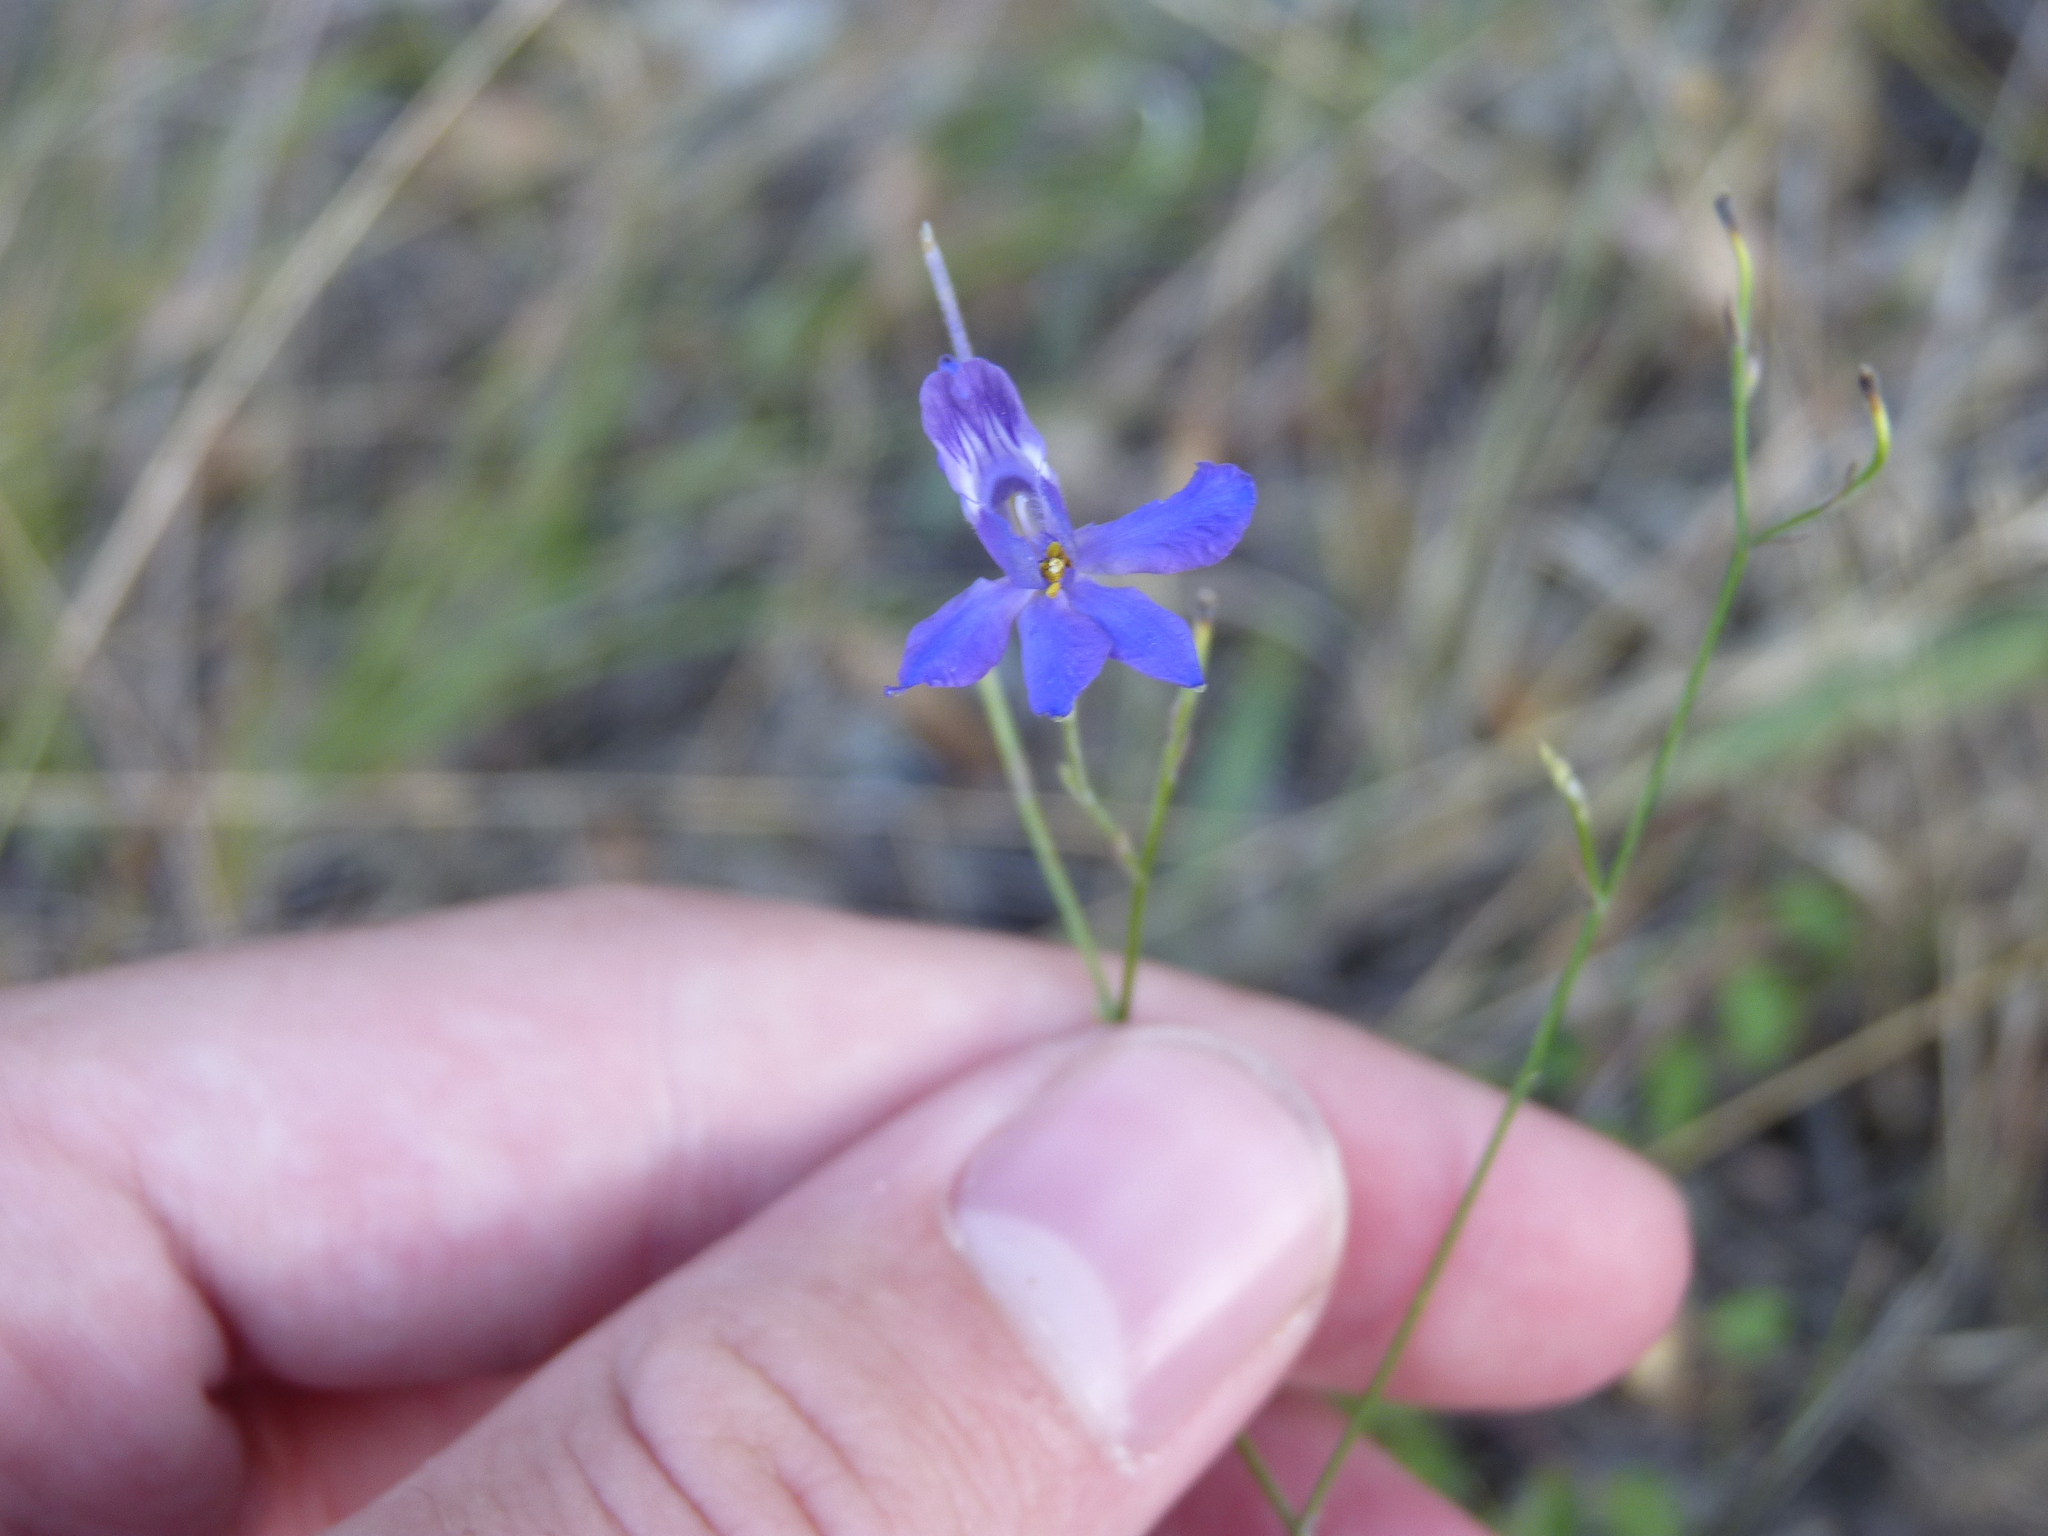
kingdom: Plantae
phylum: Tracheophyta
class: Magnoliopsida
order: Ranunculales
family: Ranunculaceae
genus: Delphinium
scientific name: Delphinium consolida
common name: Branching larkspur
